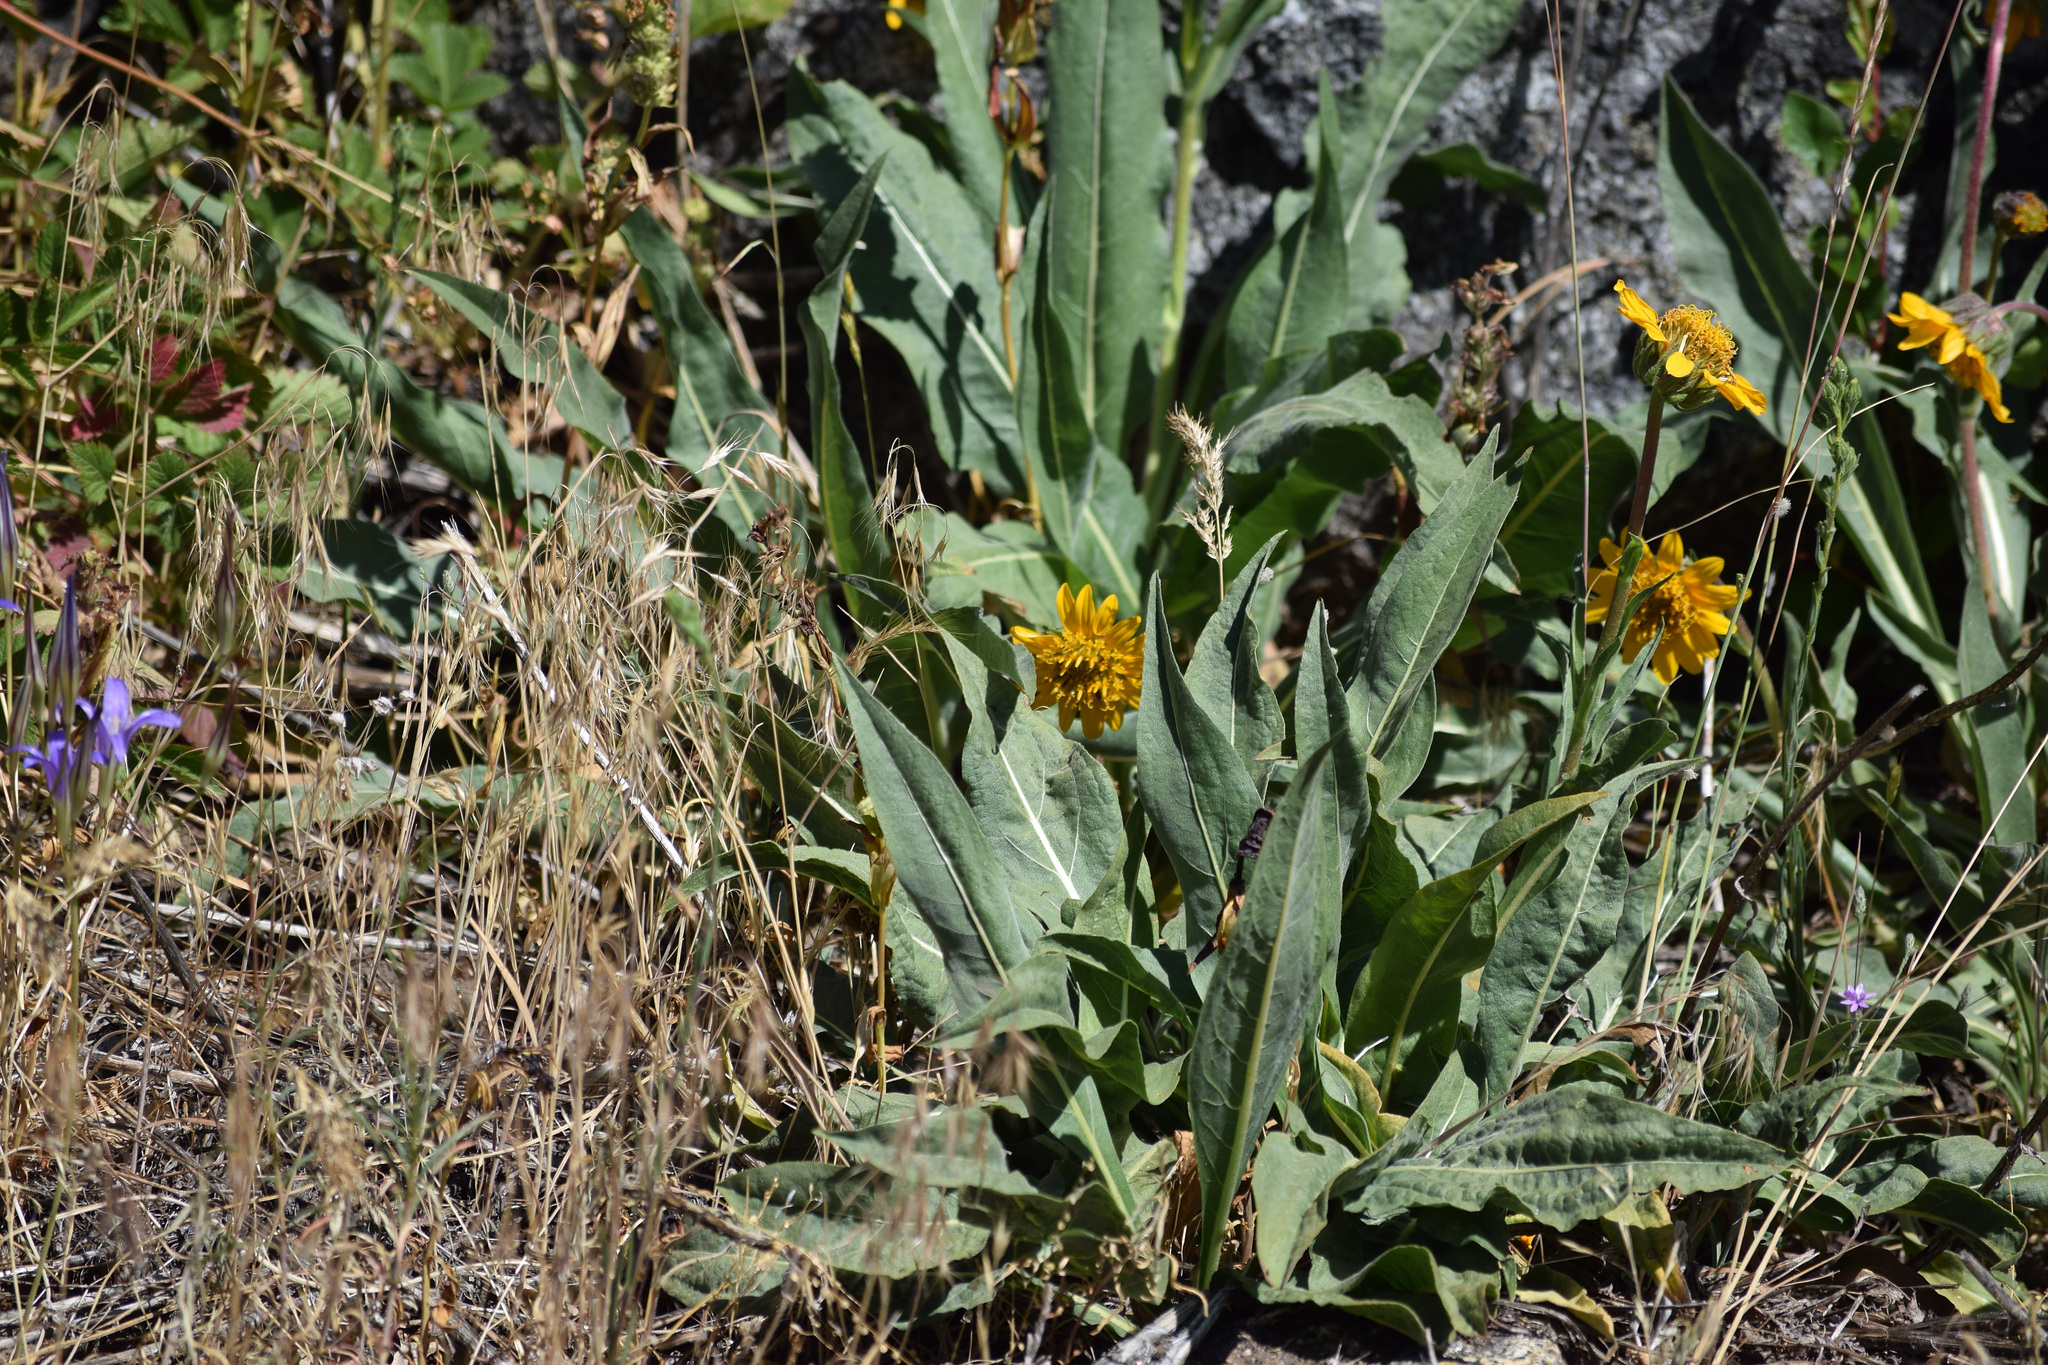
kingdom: Plantae
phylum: Tracheophyta
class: Magnoliopsida
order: Asterales
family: Asteraceae
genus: Wyethia
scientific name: Wyethia angustifolia
